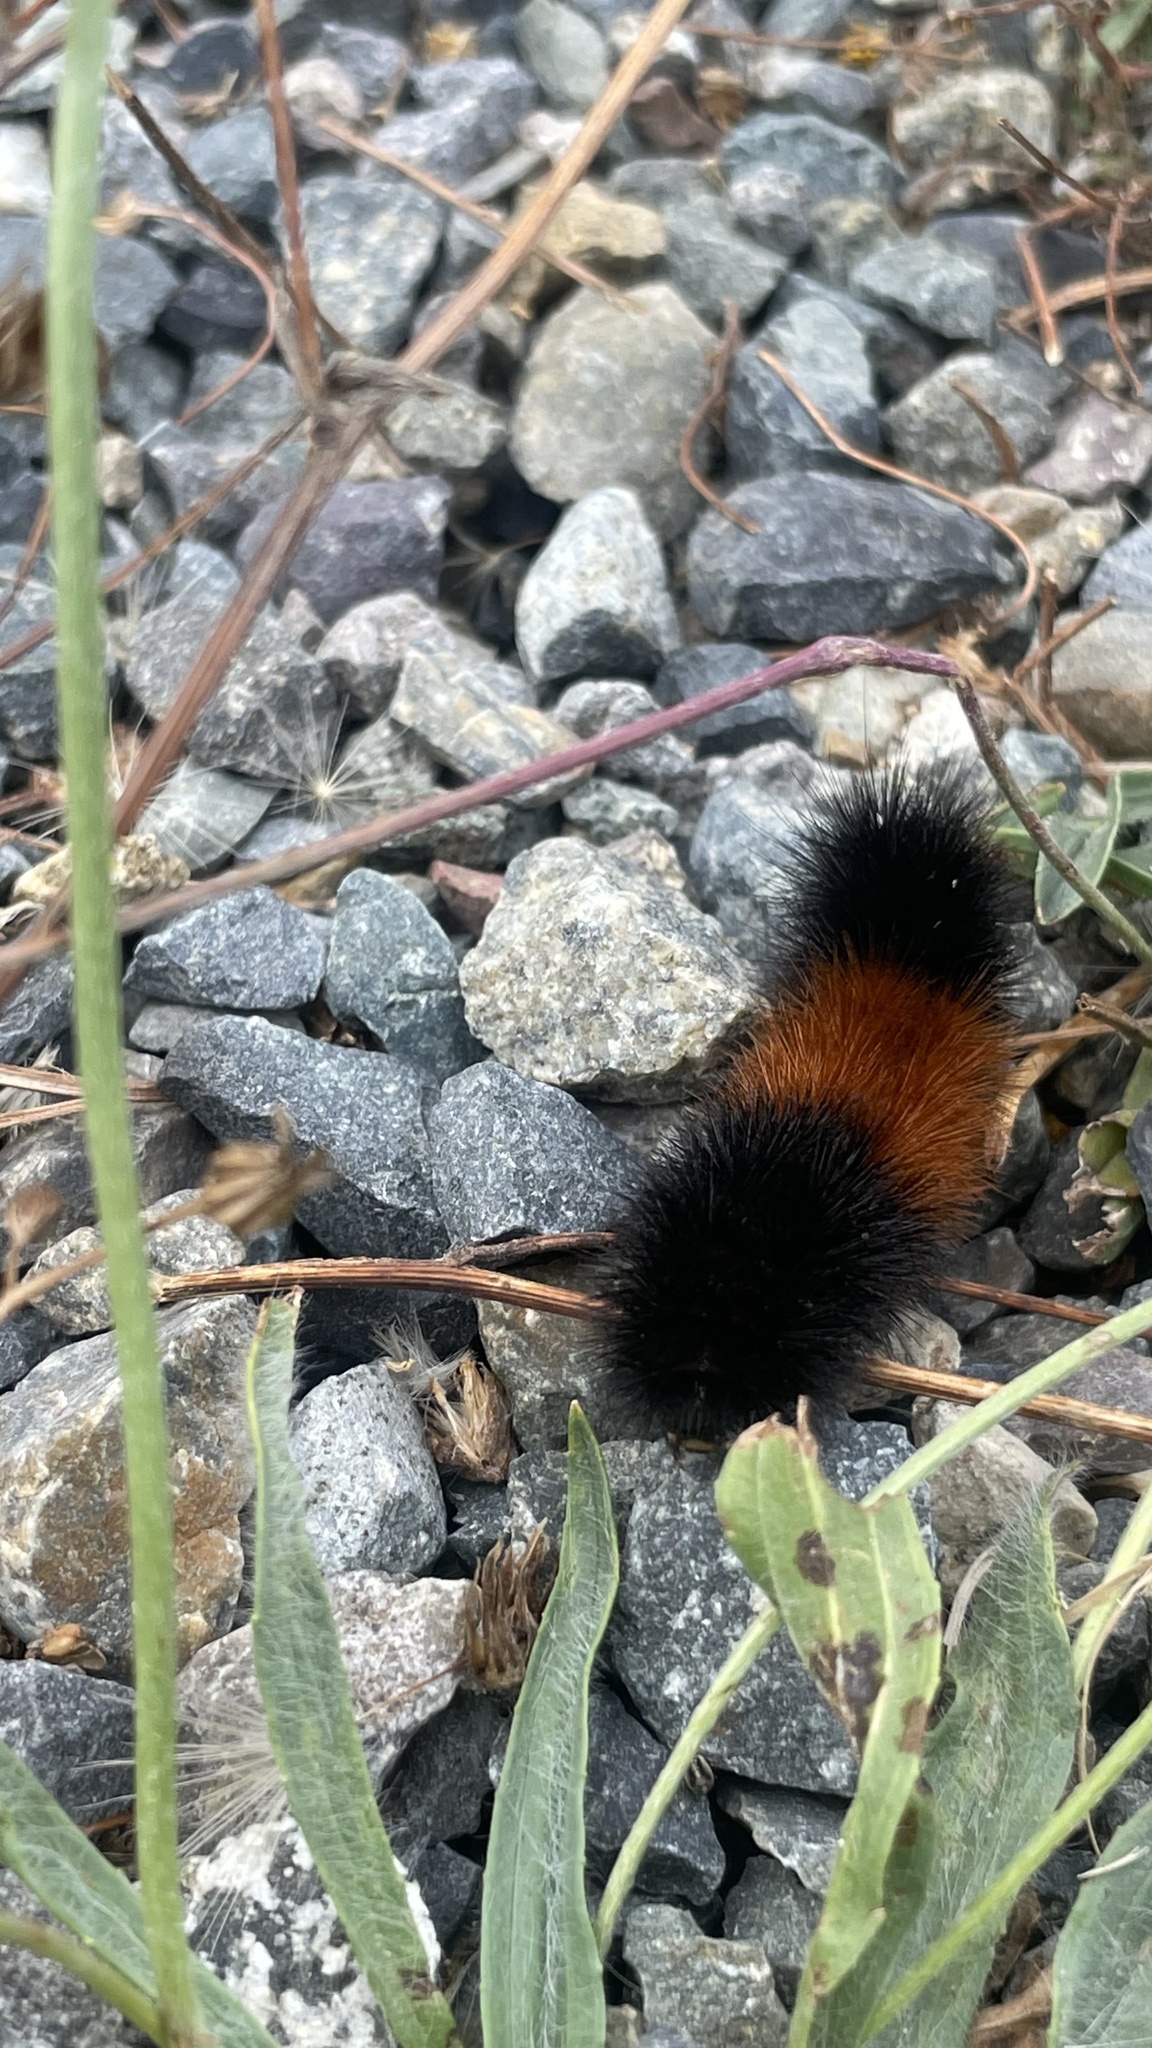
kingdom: Animalia
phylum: Arthropoda
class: Insecta
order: Lepidoptera
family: Erebidae
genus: Pyrrharctia
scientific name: Pyrrharctia isabella
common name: Isabella tiger moth
